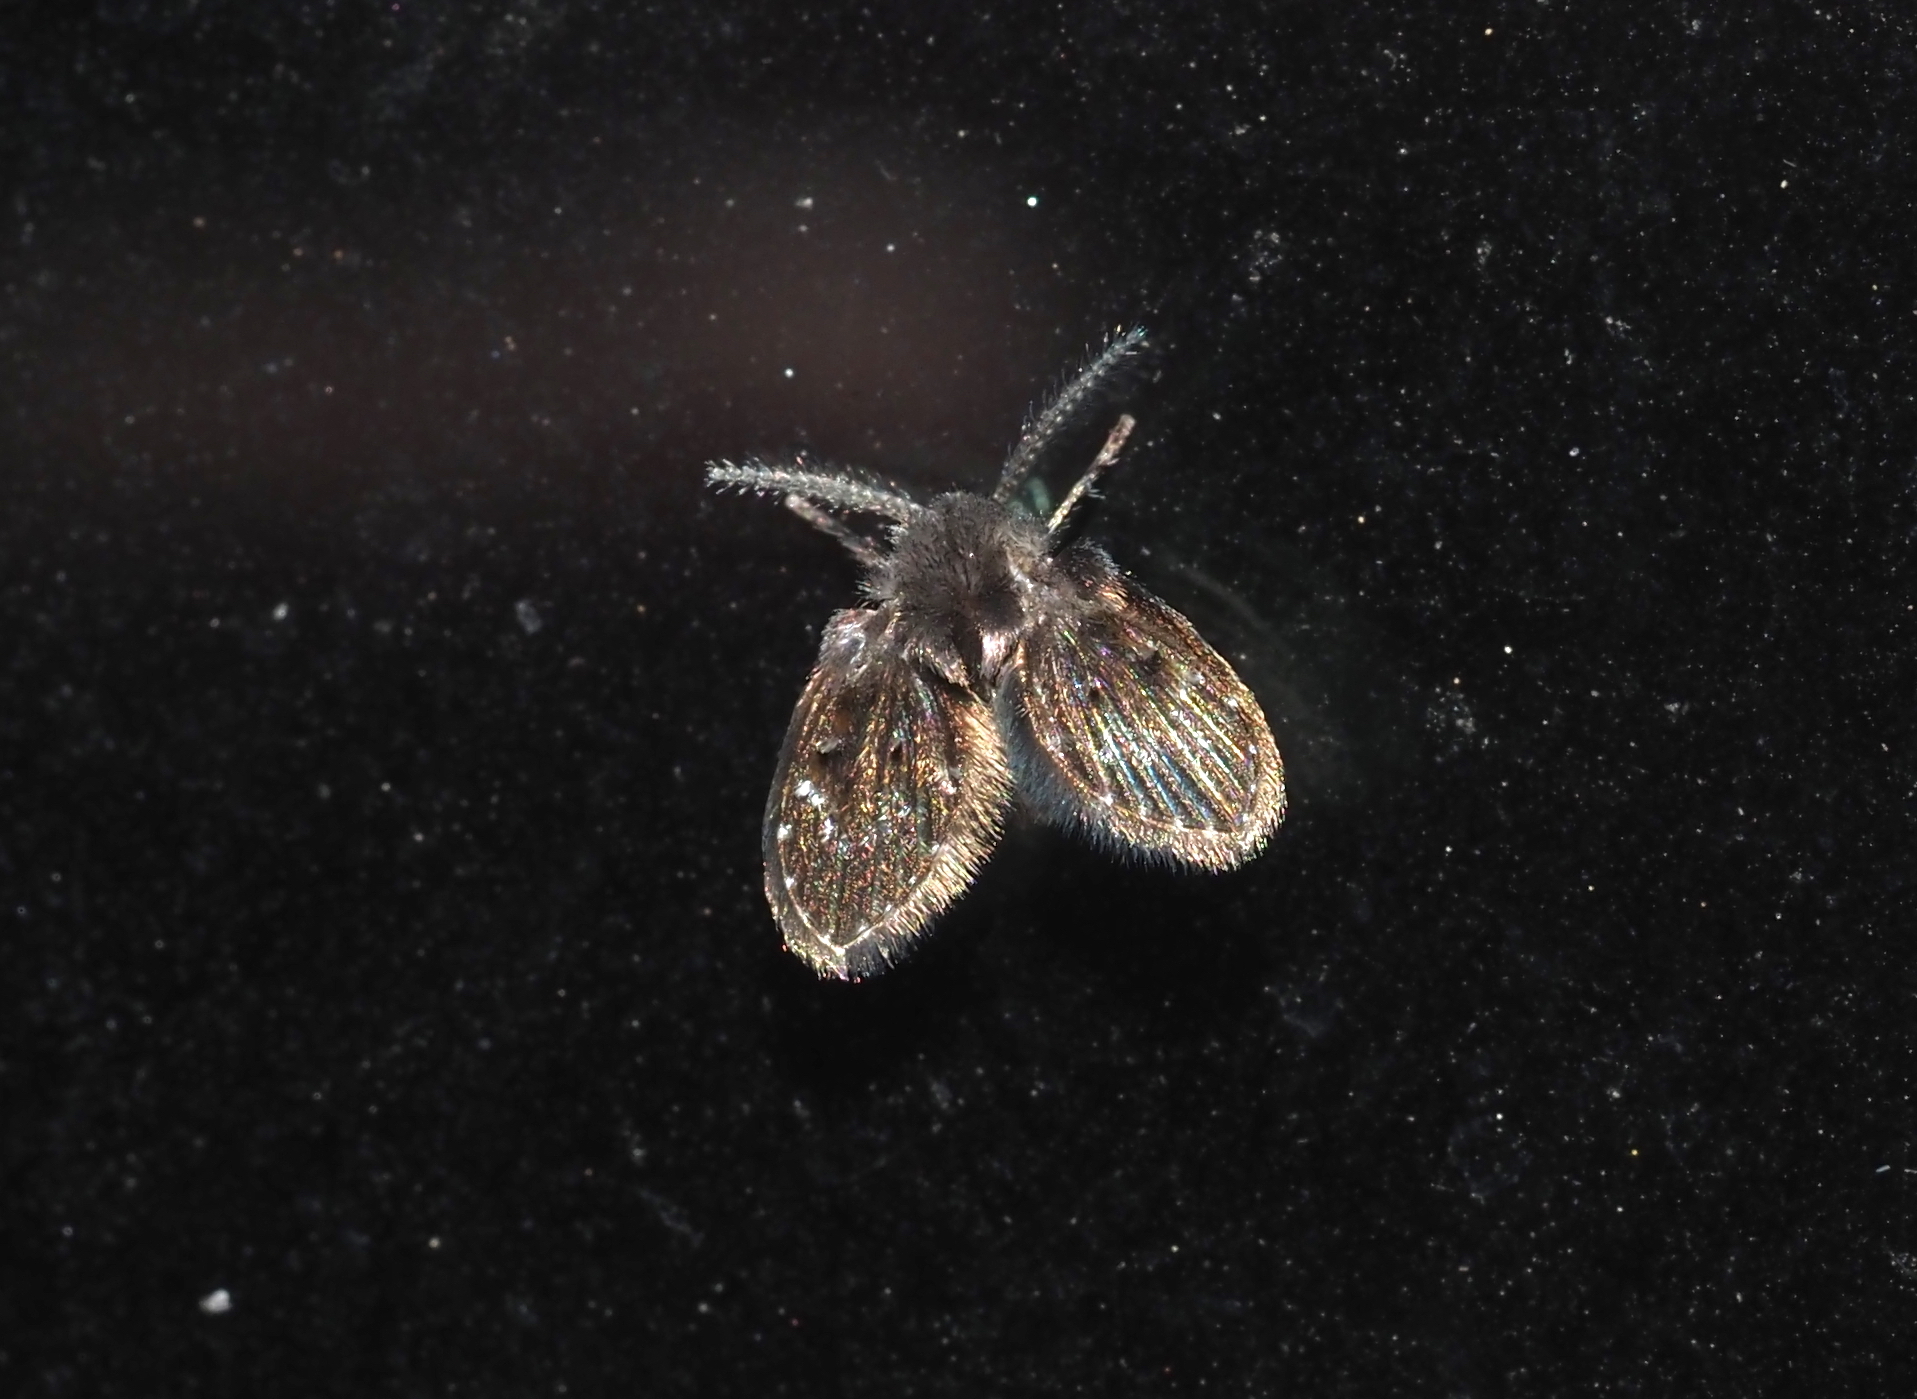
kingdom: Animalia
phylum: Arthropoda
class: Insecta
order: Diptera
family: Psychodidae
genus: Clogmia
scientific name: Clogmia albipunctatus
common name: White-spotted moth fly
